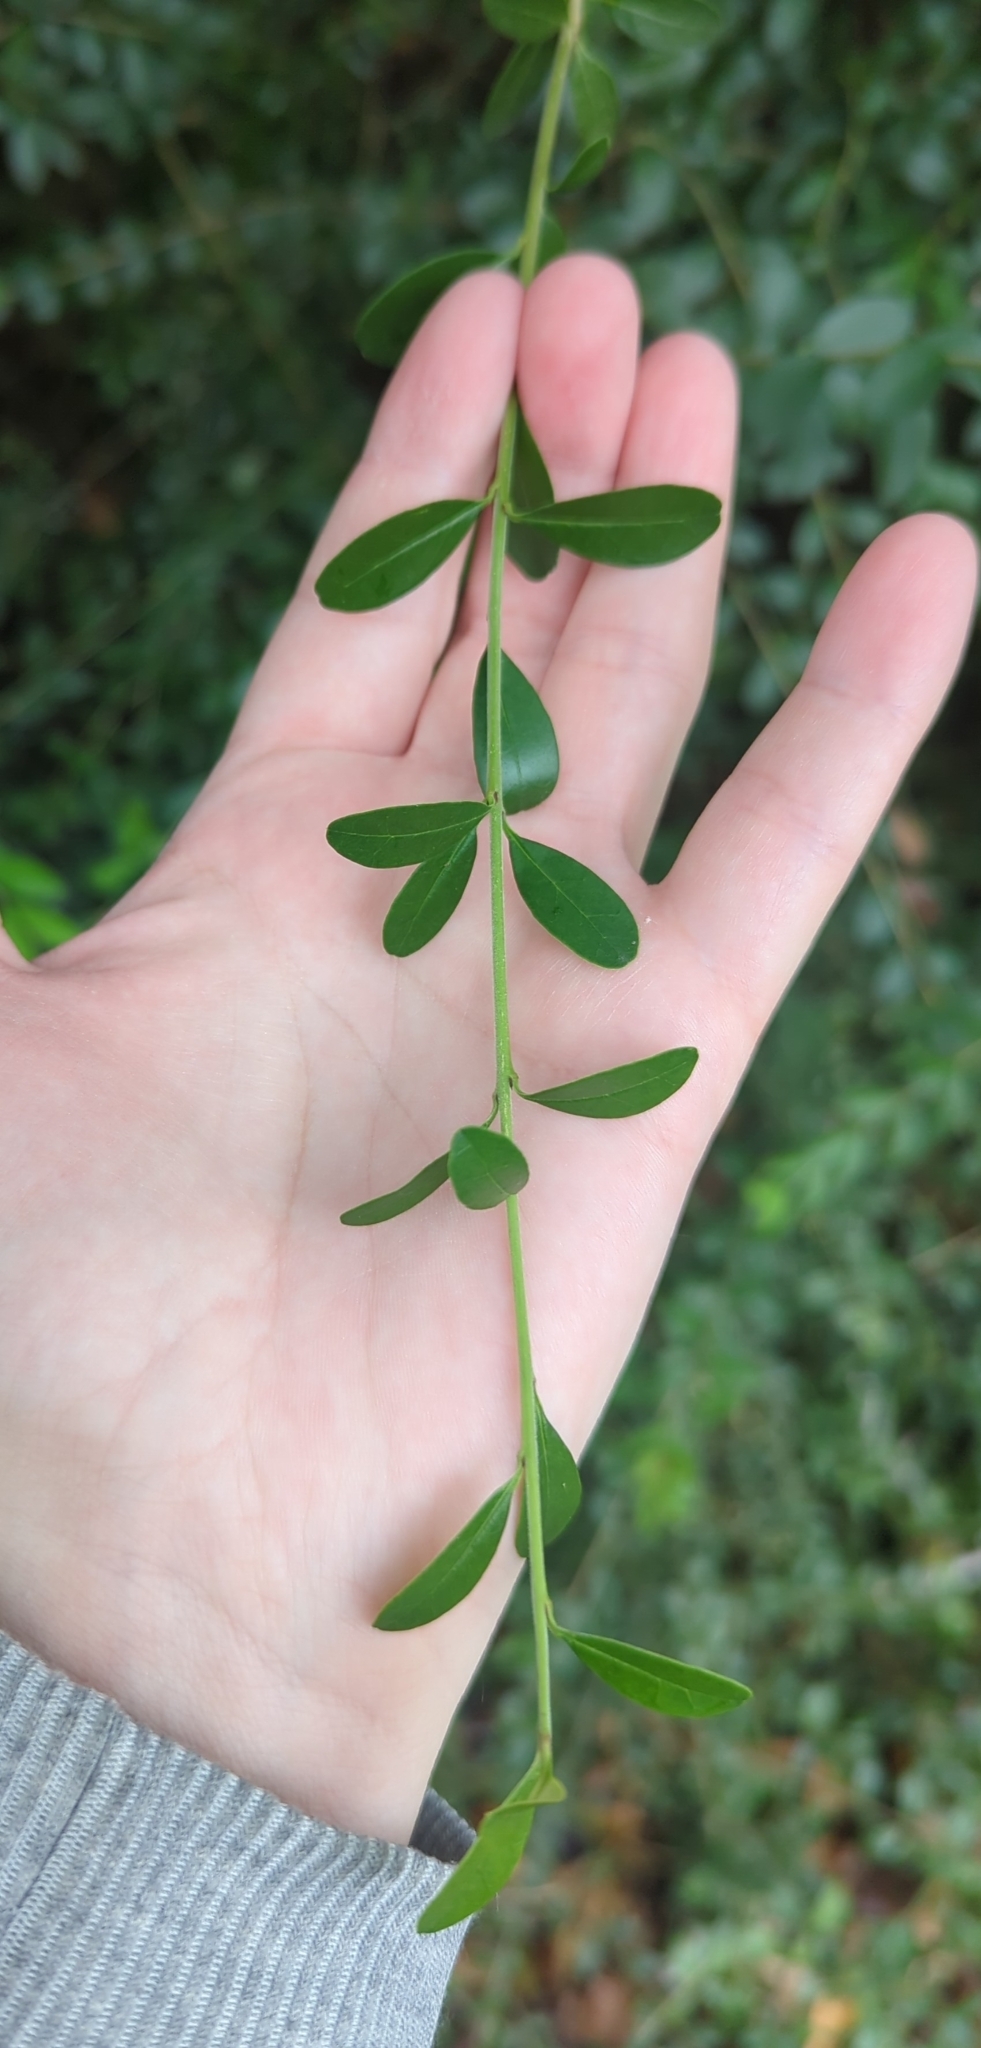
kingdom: Plantae
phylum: Tracheophyta
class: Magnoliopsida
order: Lamiales
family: Oleaceae
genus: Ligustrum
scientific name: Ligustrum quihoui
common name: Waxyleaf privet
